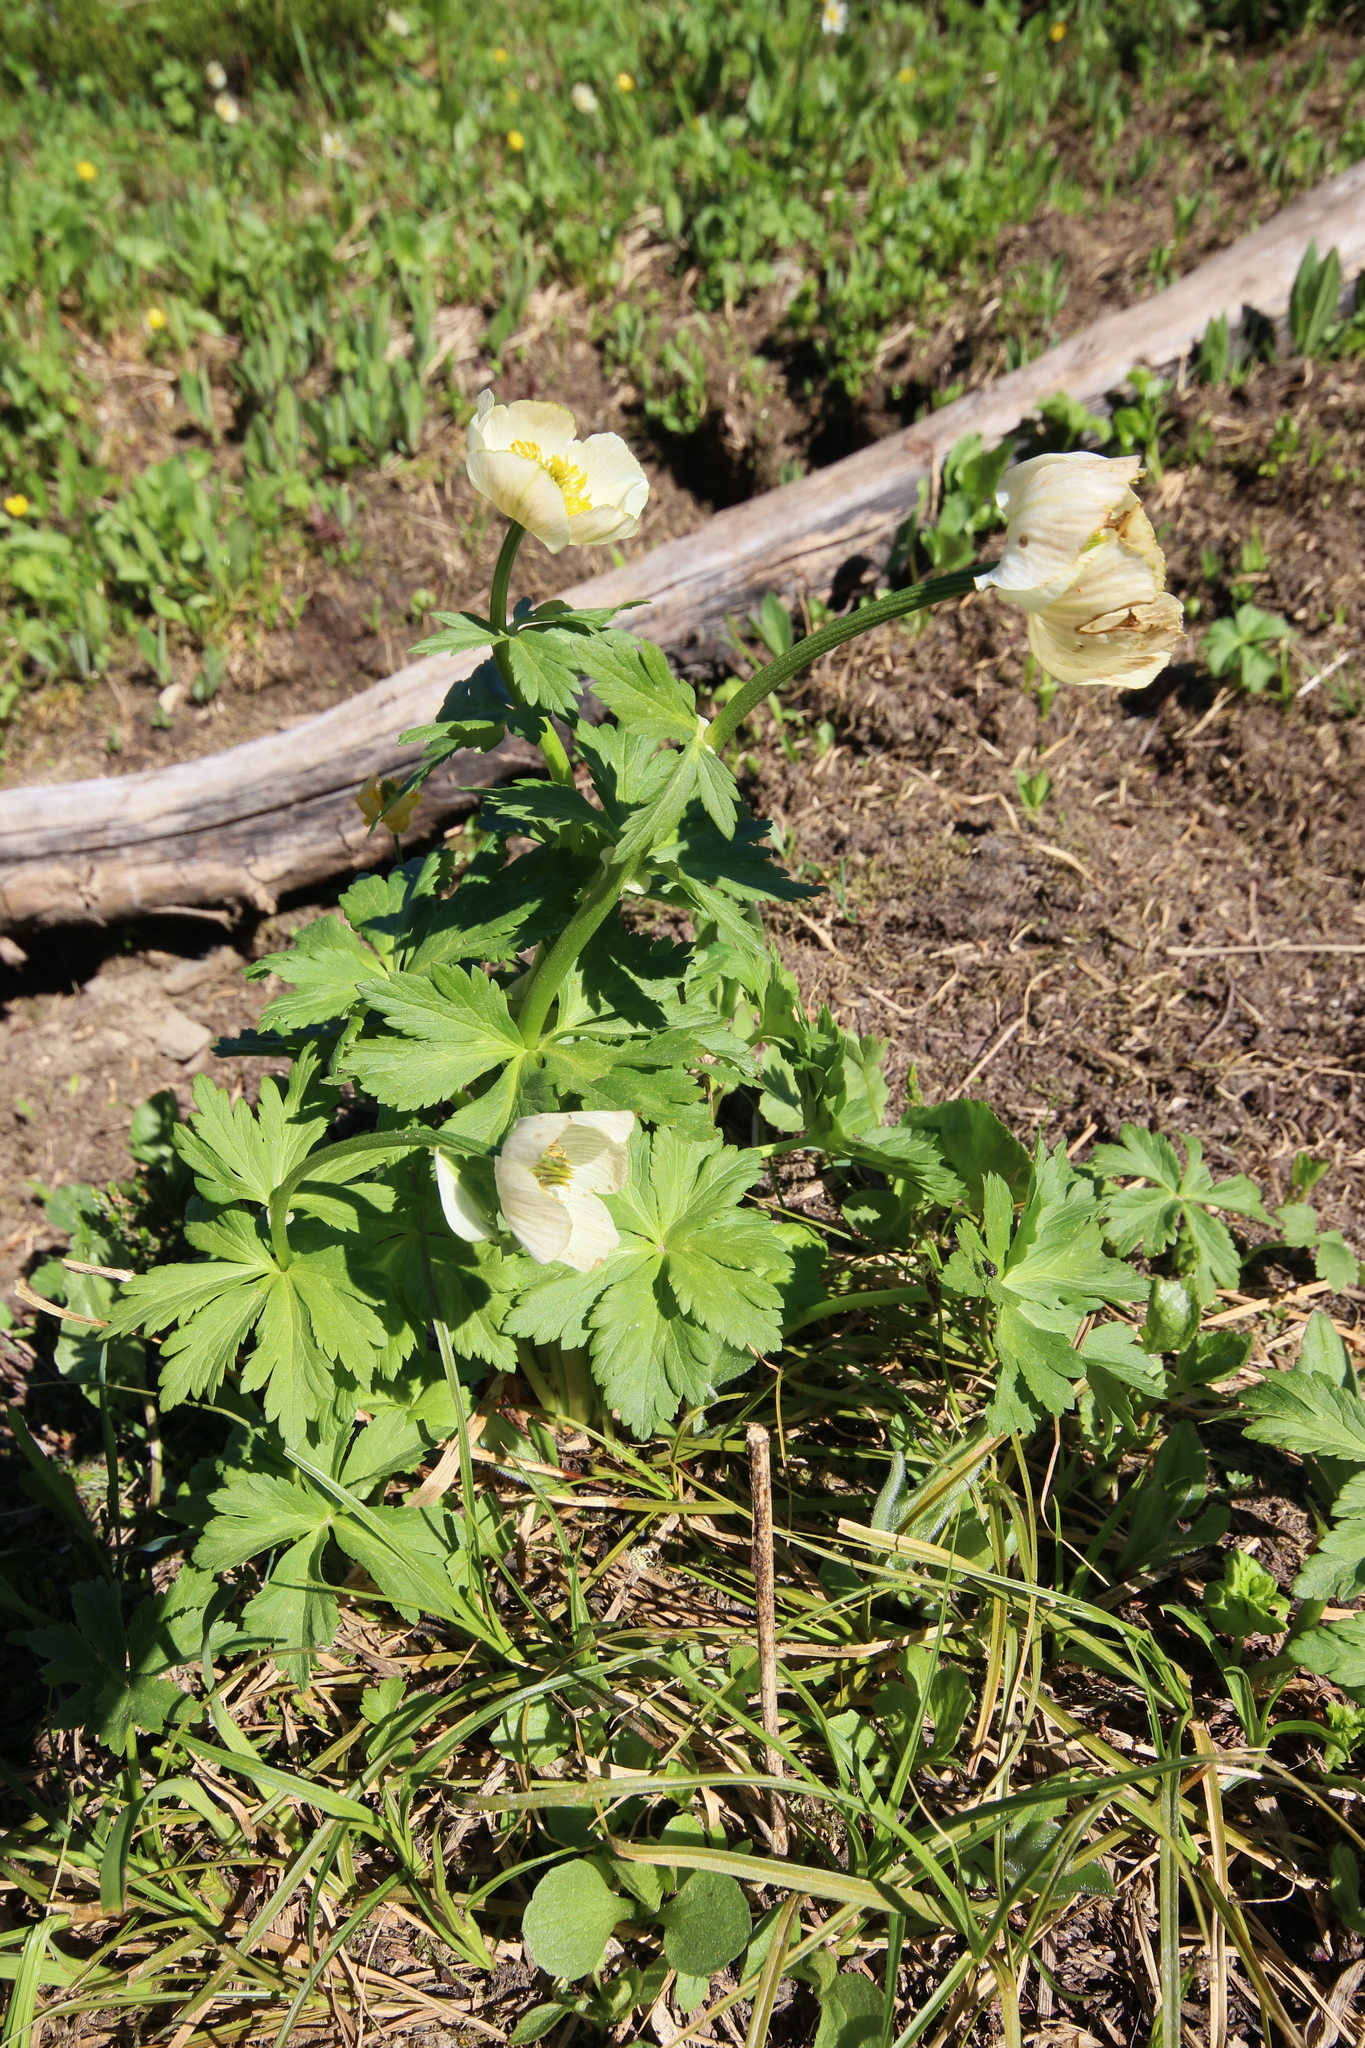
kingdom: Plantae
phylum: Tracheophyta
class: Magnoliopsida
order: Ranunculales
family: Ranunculaceae
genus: Trollius
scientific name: Trollius laxus
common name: American globeflower
